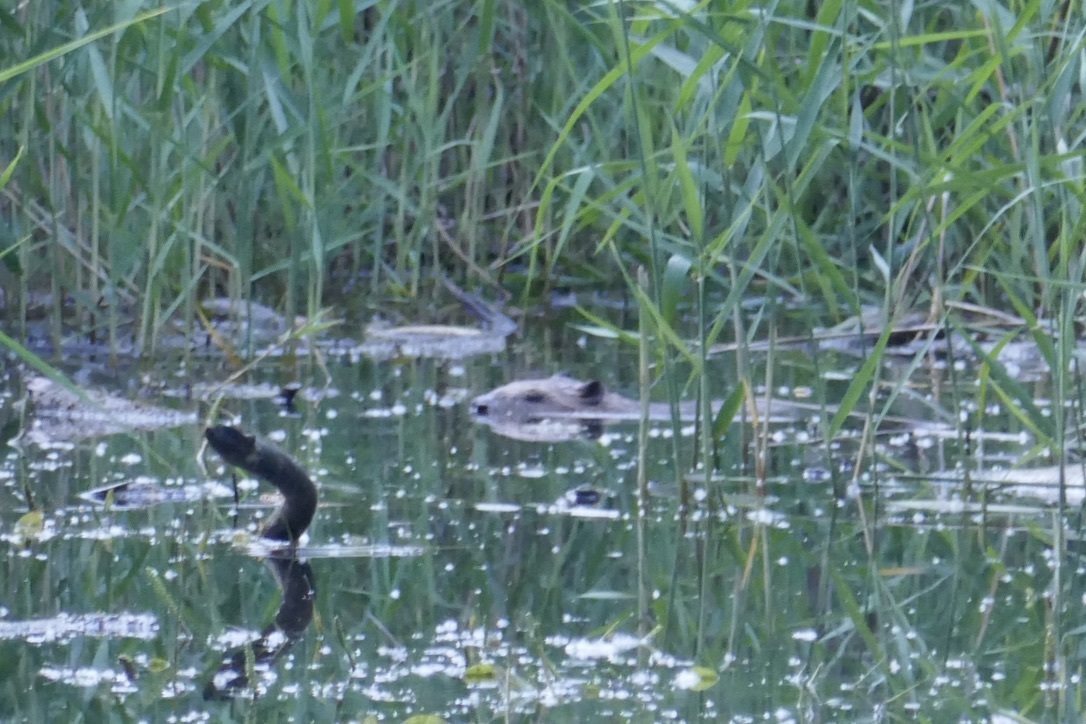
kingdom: Animalia
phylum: Chordata
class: Mammalia
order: Rodentia
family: Castoridae
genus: Castor
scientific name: Castor fiber
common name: Eurasian beaver
